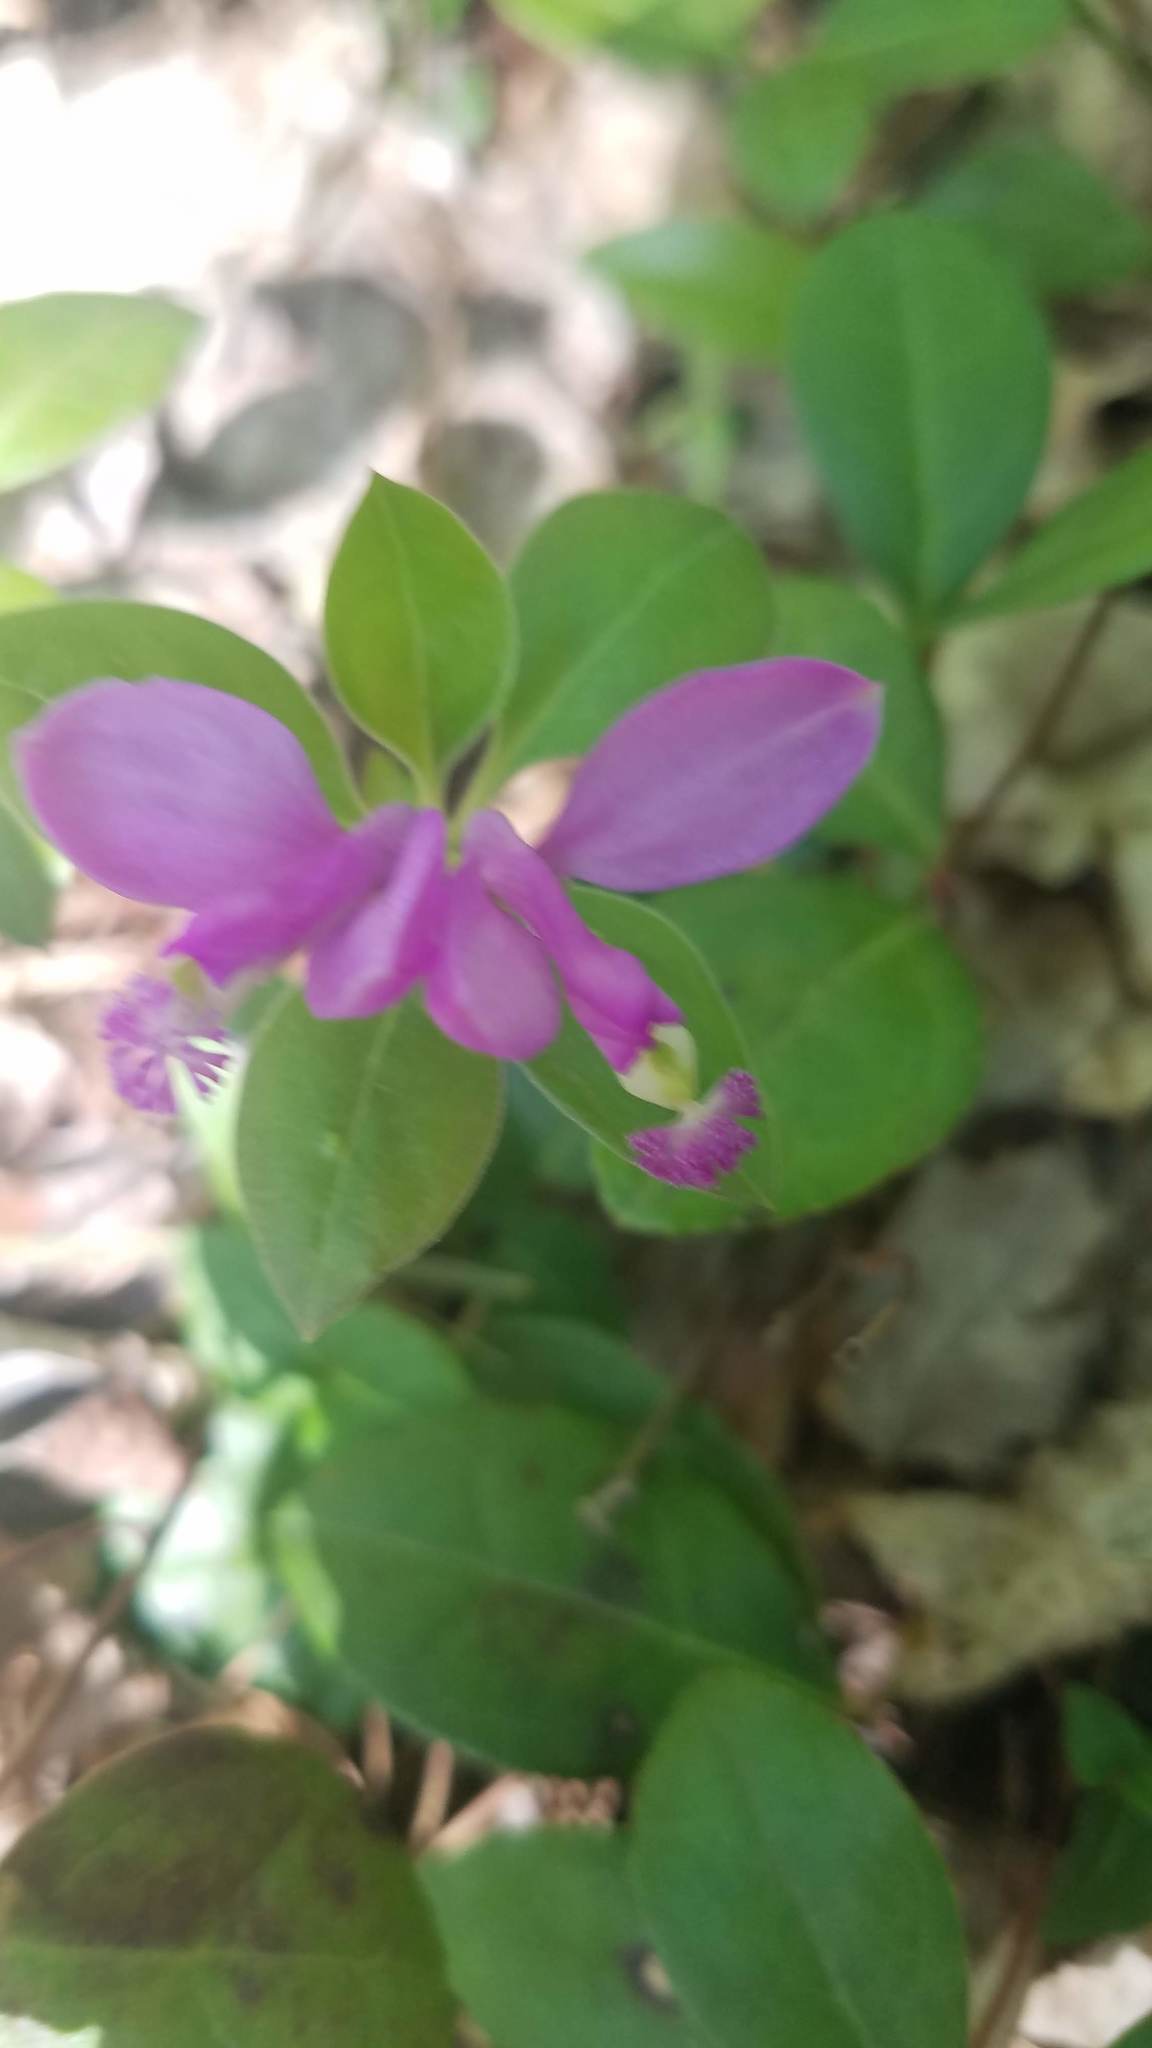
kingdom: Plantae
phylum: Tracheophyta
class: Magnoliopsida
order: Fabales
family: Polygalaceae
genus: Polygaloides
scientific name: Polygaloides paucifolia
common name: Bird-on-the-wing
